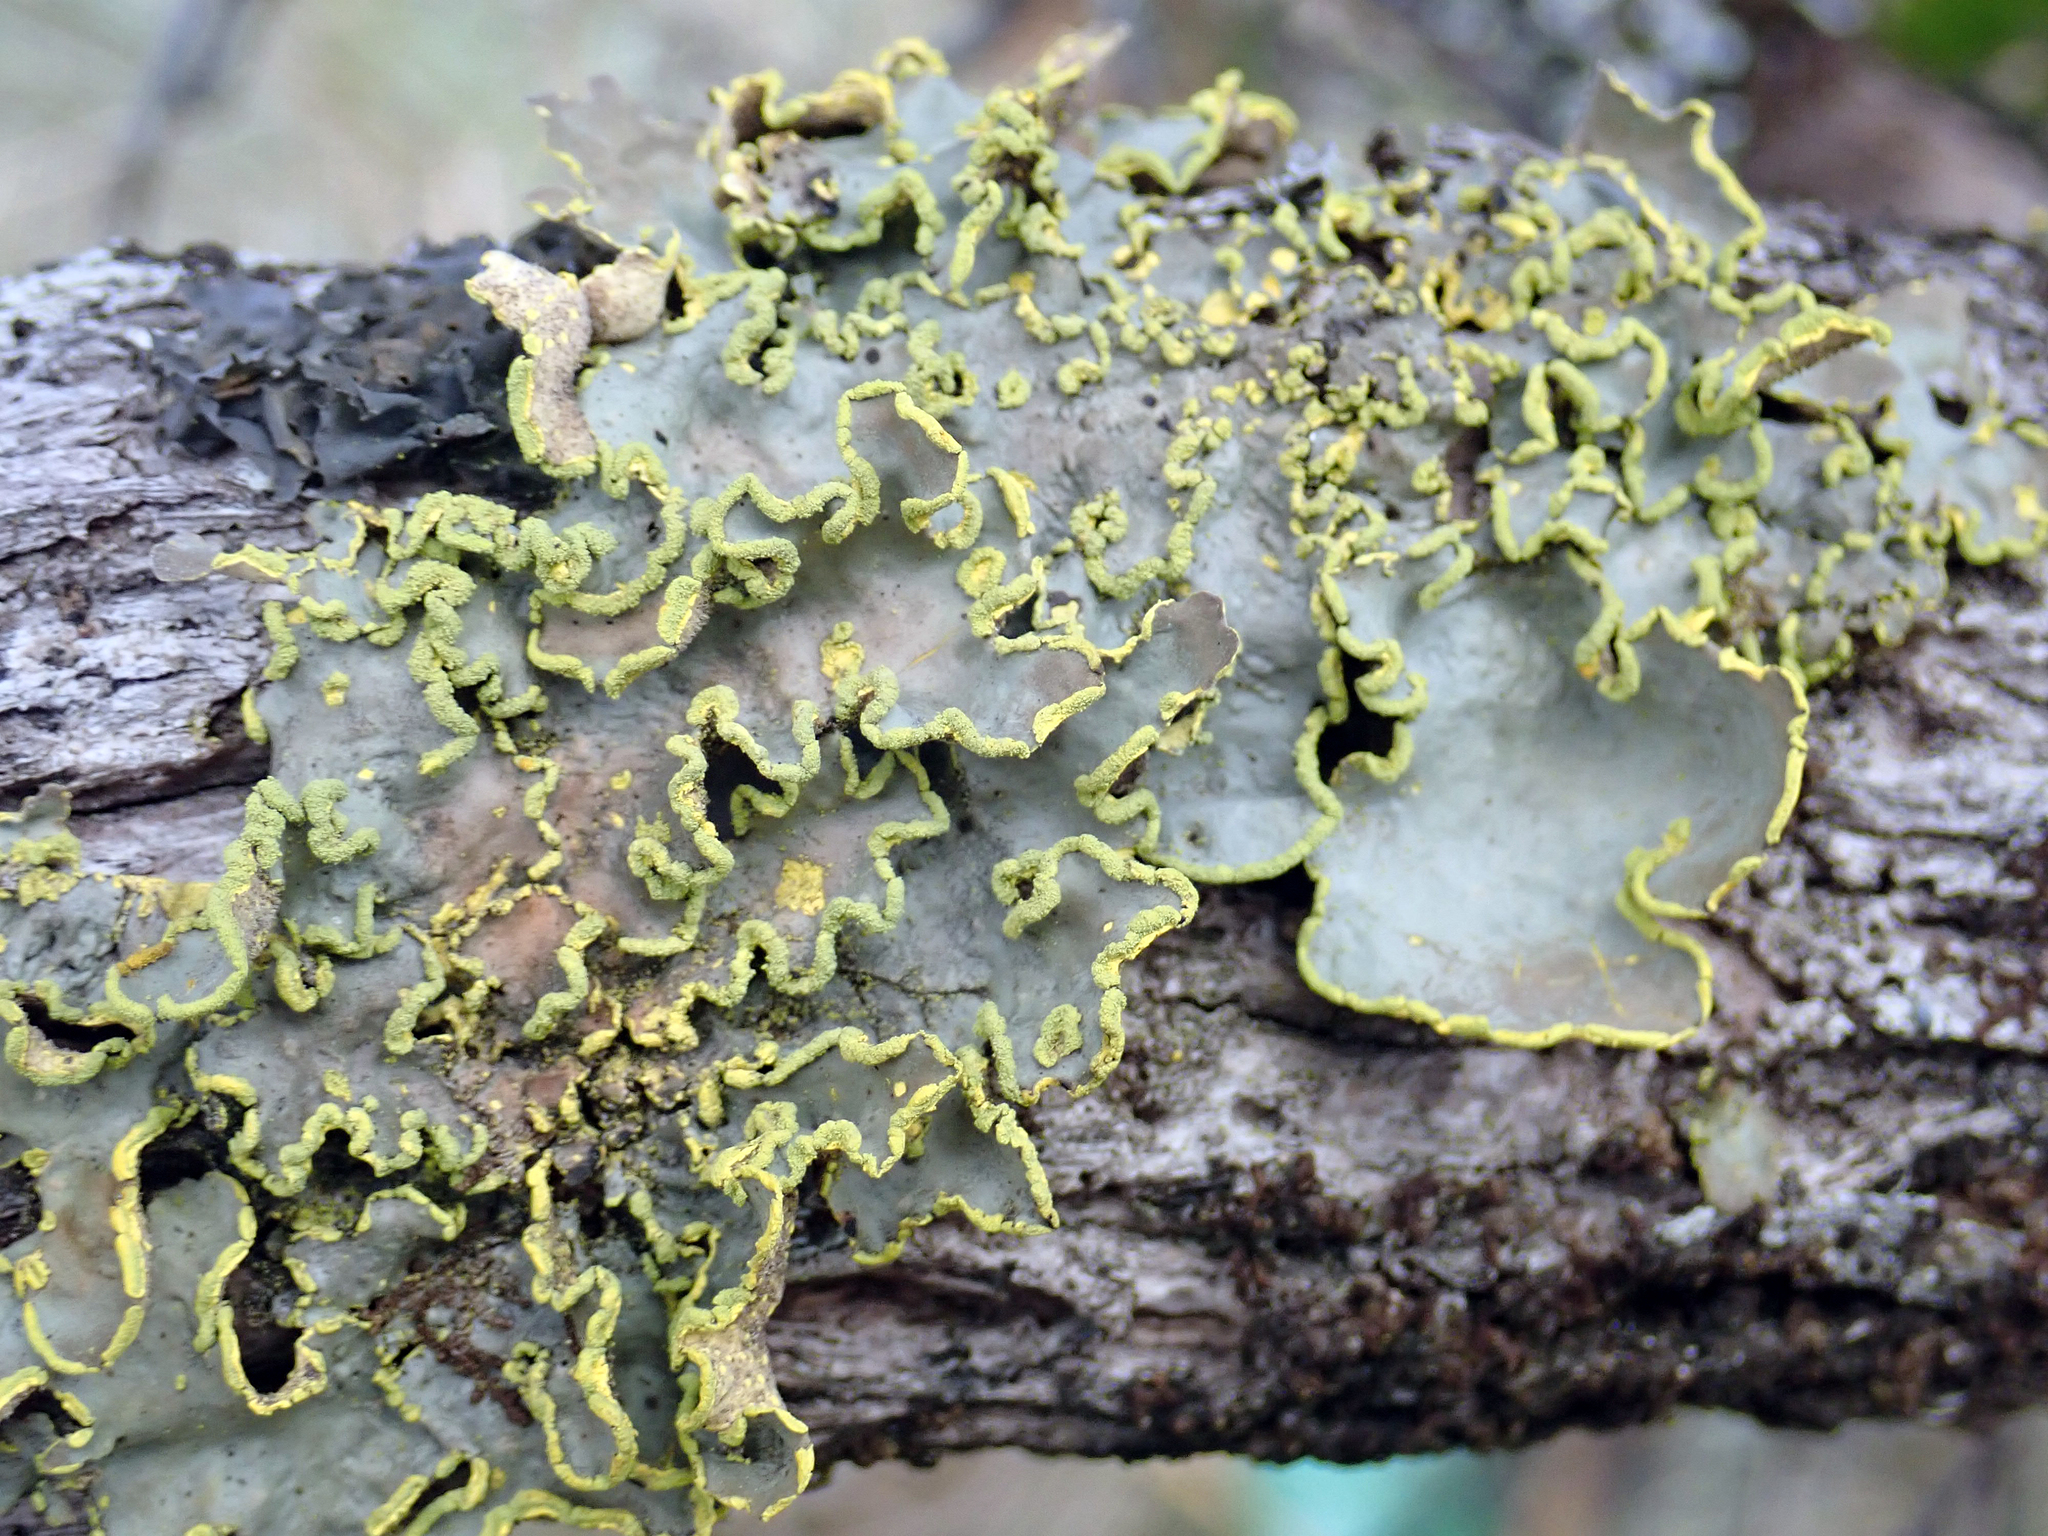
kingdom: Fungi
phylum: Ascomycota
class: Lecanoromycetes
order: Peltigerales
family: Lobariaceae
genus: Pseudocyphellaria
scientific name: Pseudocyphellaria aurata
